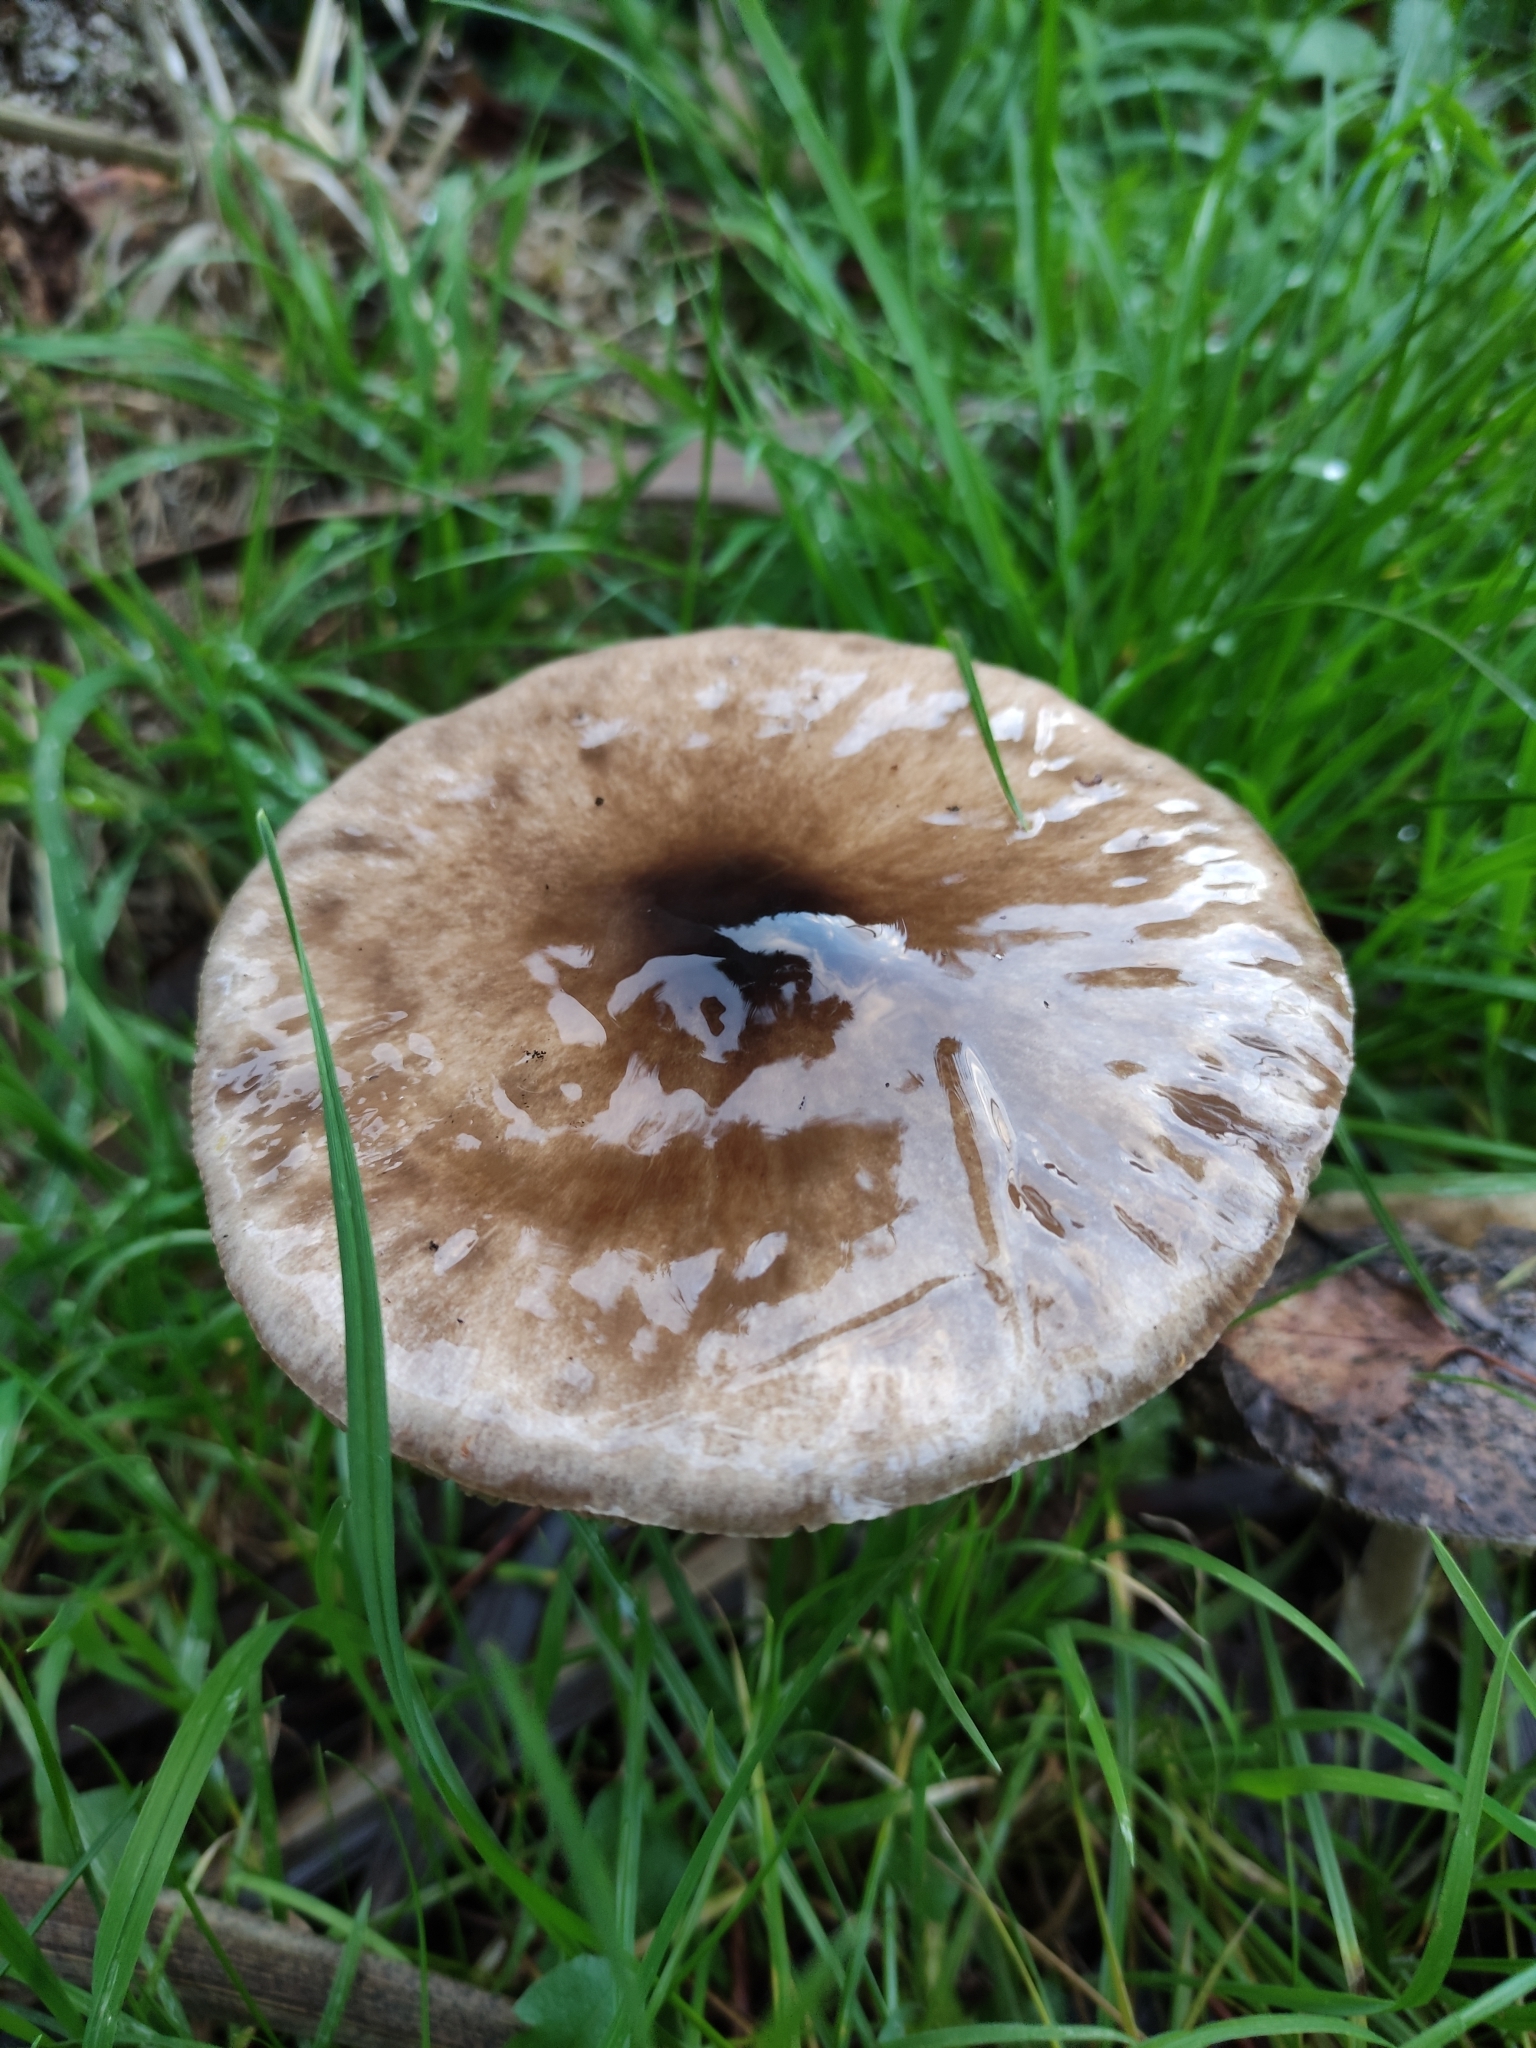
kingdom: Fungi
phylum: Basidiomycota
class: Agaricomycetes
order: Agaricales
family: Pluteaceae
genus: Volvopluteus
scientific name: Volvopluteus gloiocephalus
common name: Stubble rosegill
